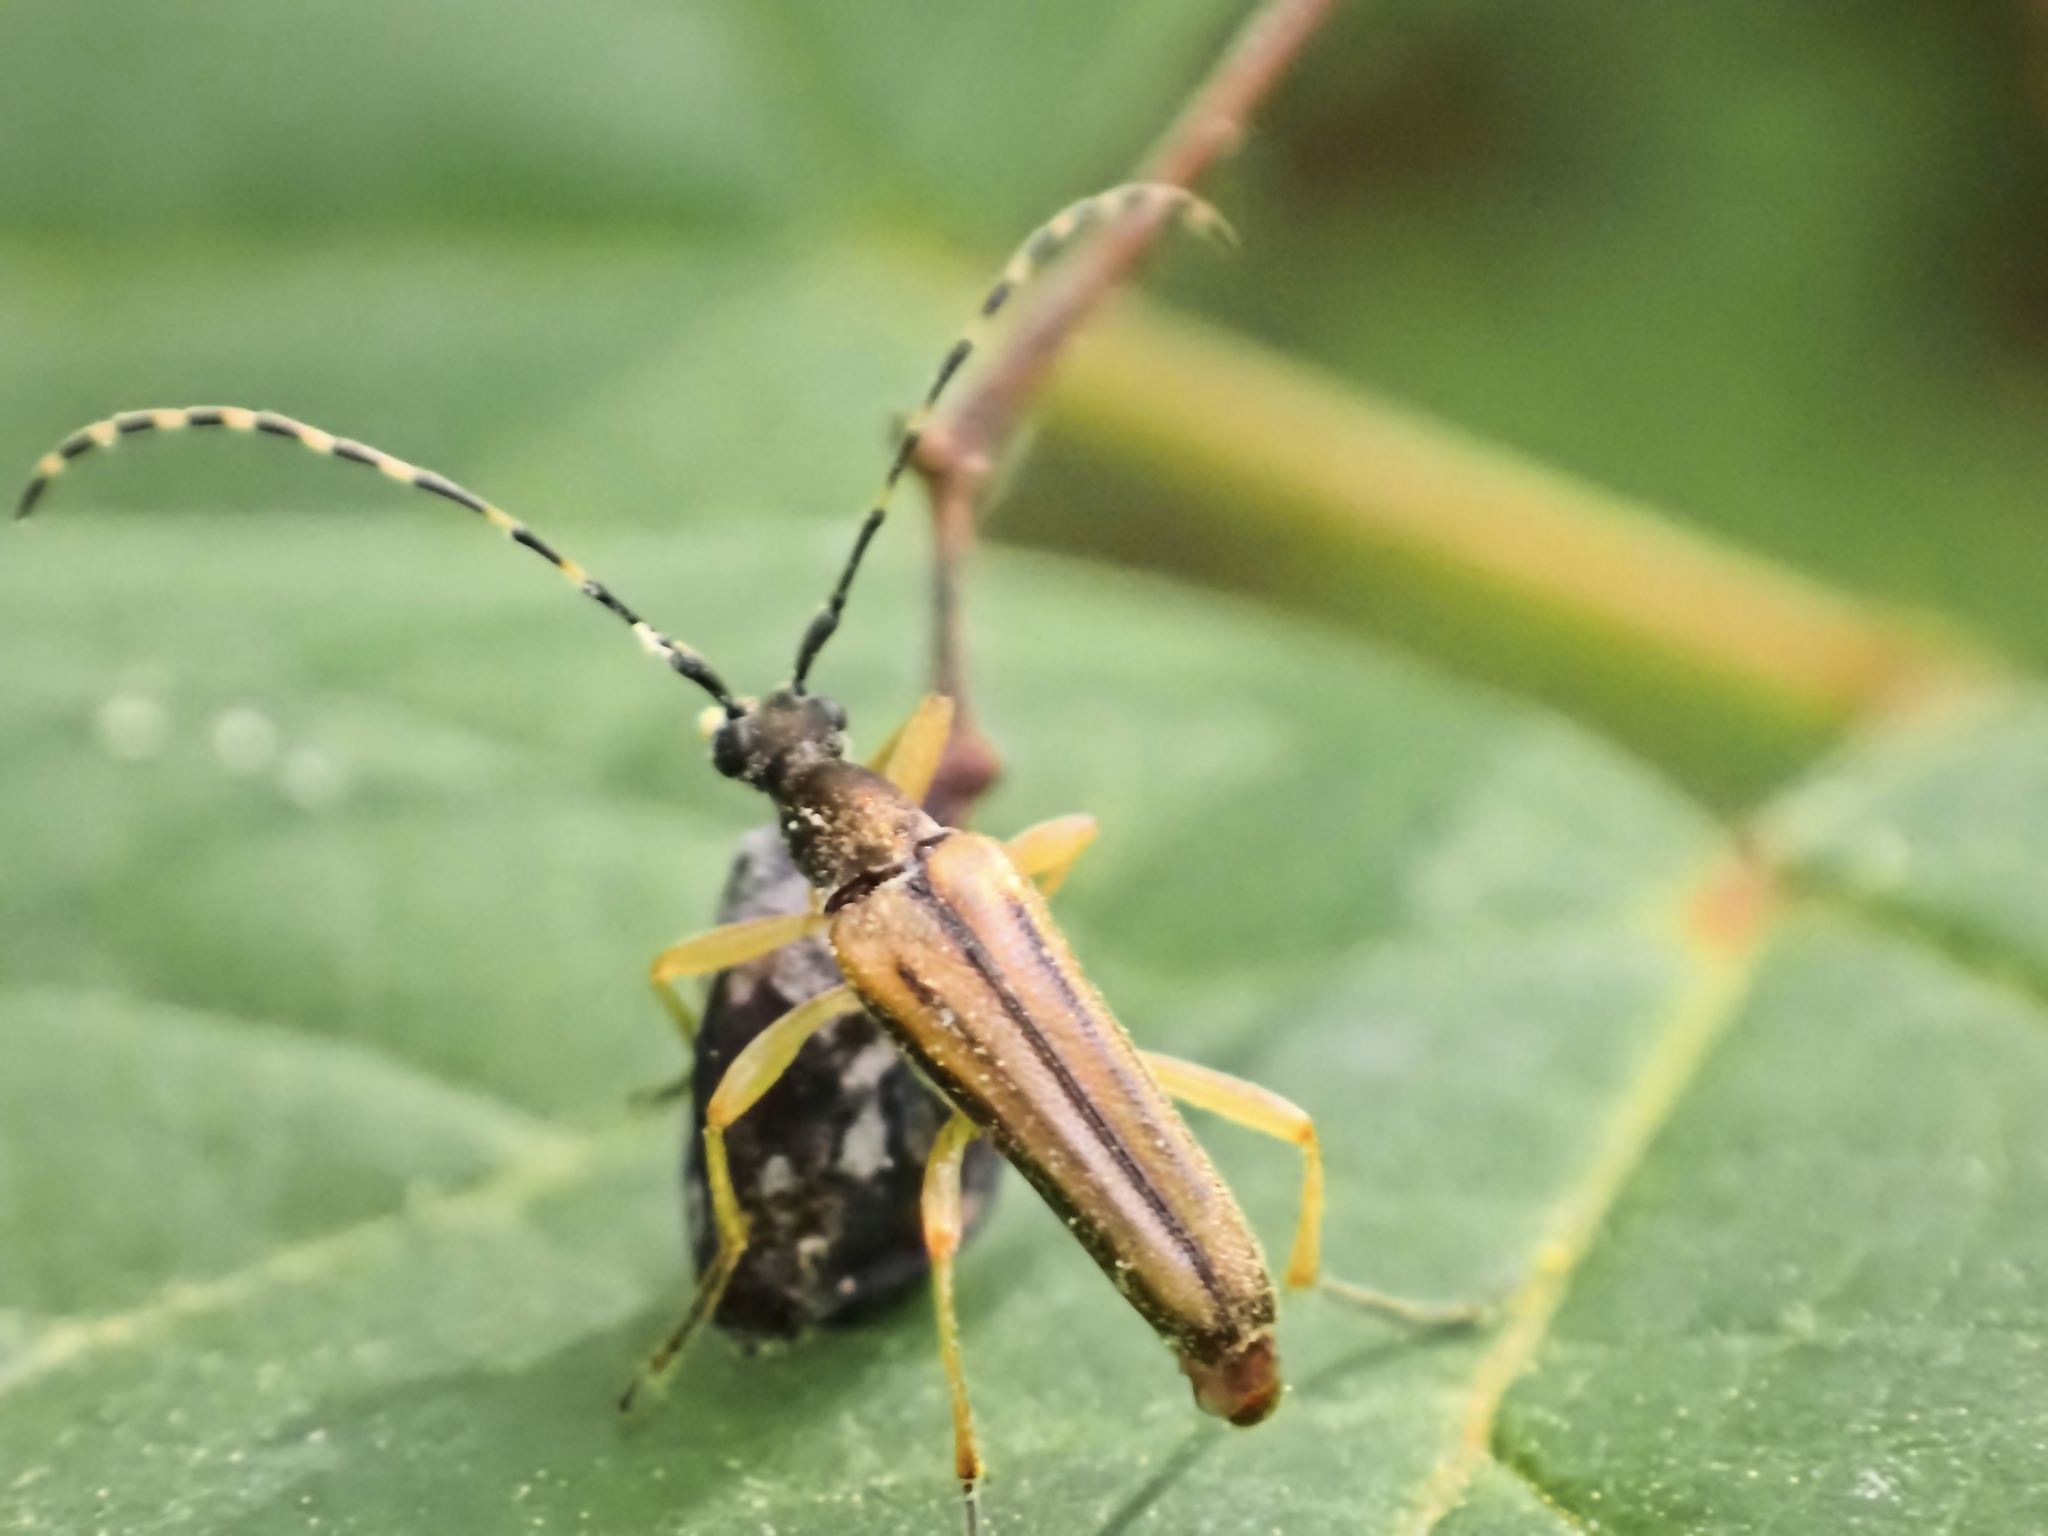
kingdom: Animalia
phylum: Arthropoda
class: Insecta
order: Coleoptera
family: Cerambycidae
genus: Analeptura
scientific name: Analeptura lineola
